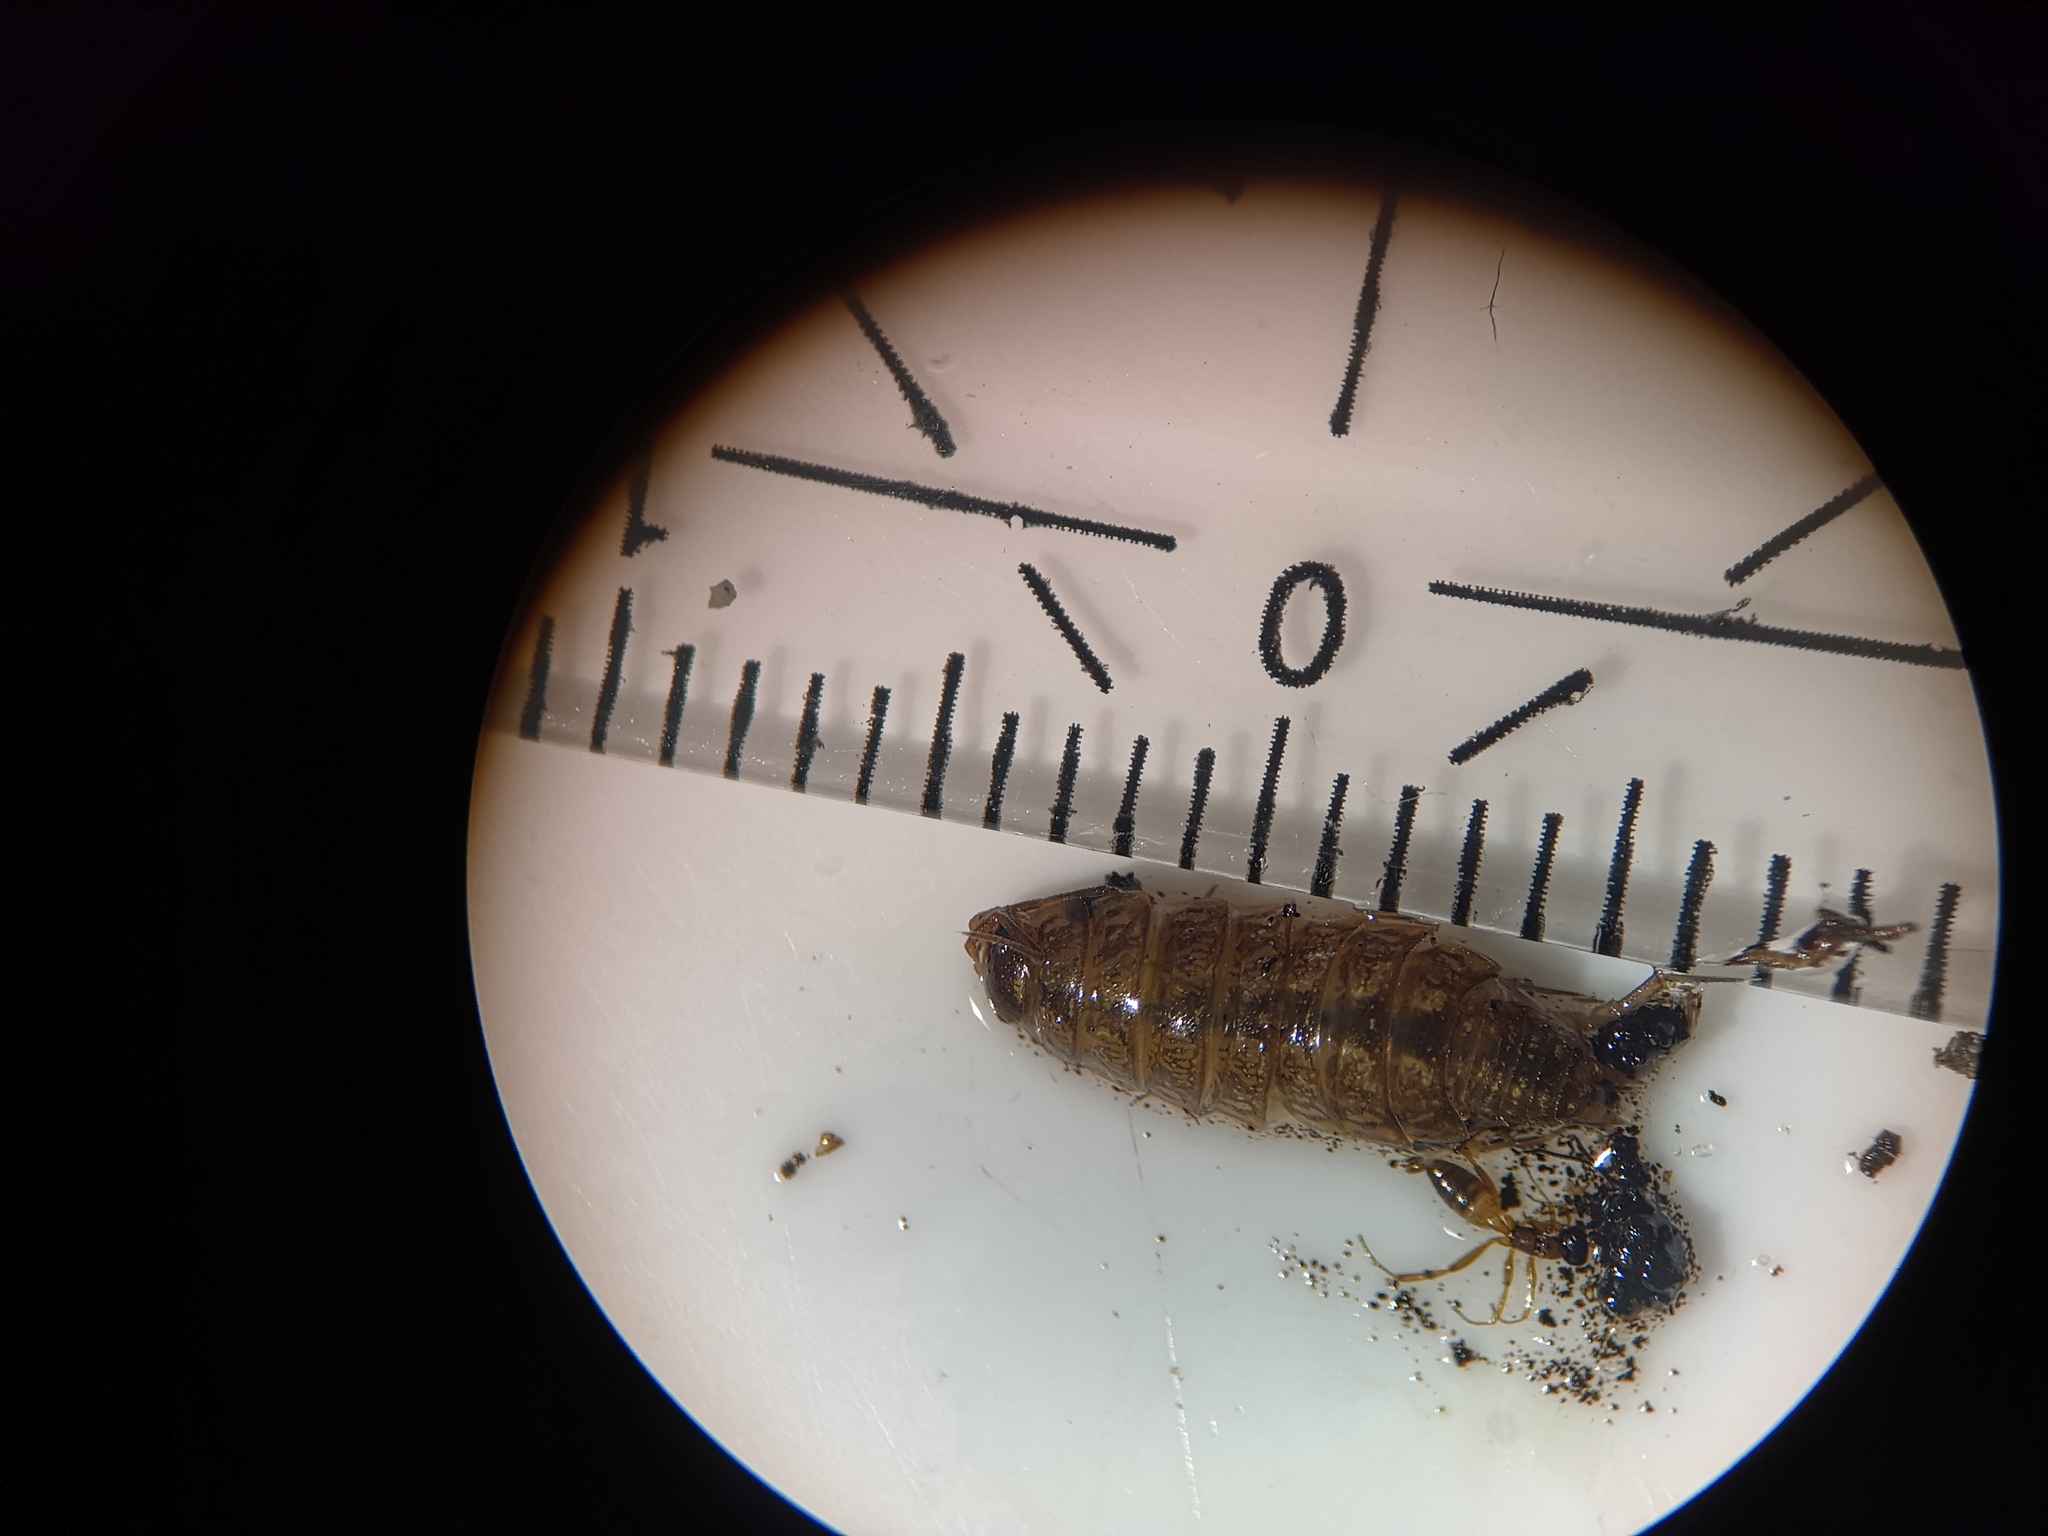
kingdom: Animalia
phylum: Arthropoda
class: Malacostraca
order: Isopoda
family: Philosciidae
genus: Philoscia
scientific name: Philoscia muscorum
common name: Common striped woodlouse
